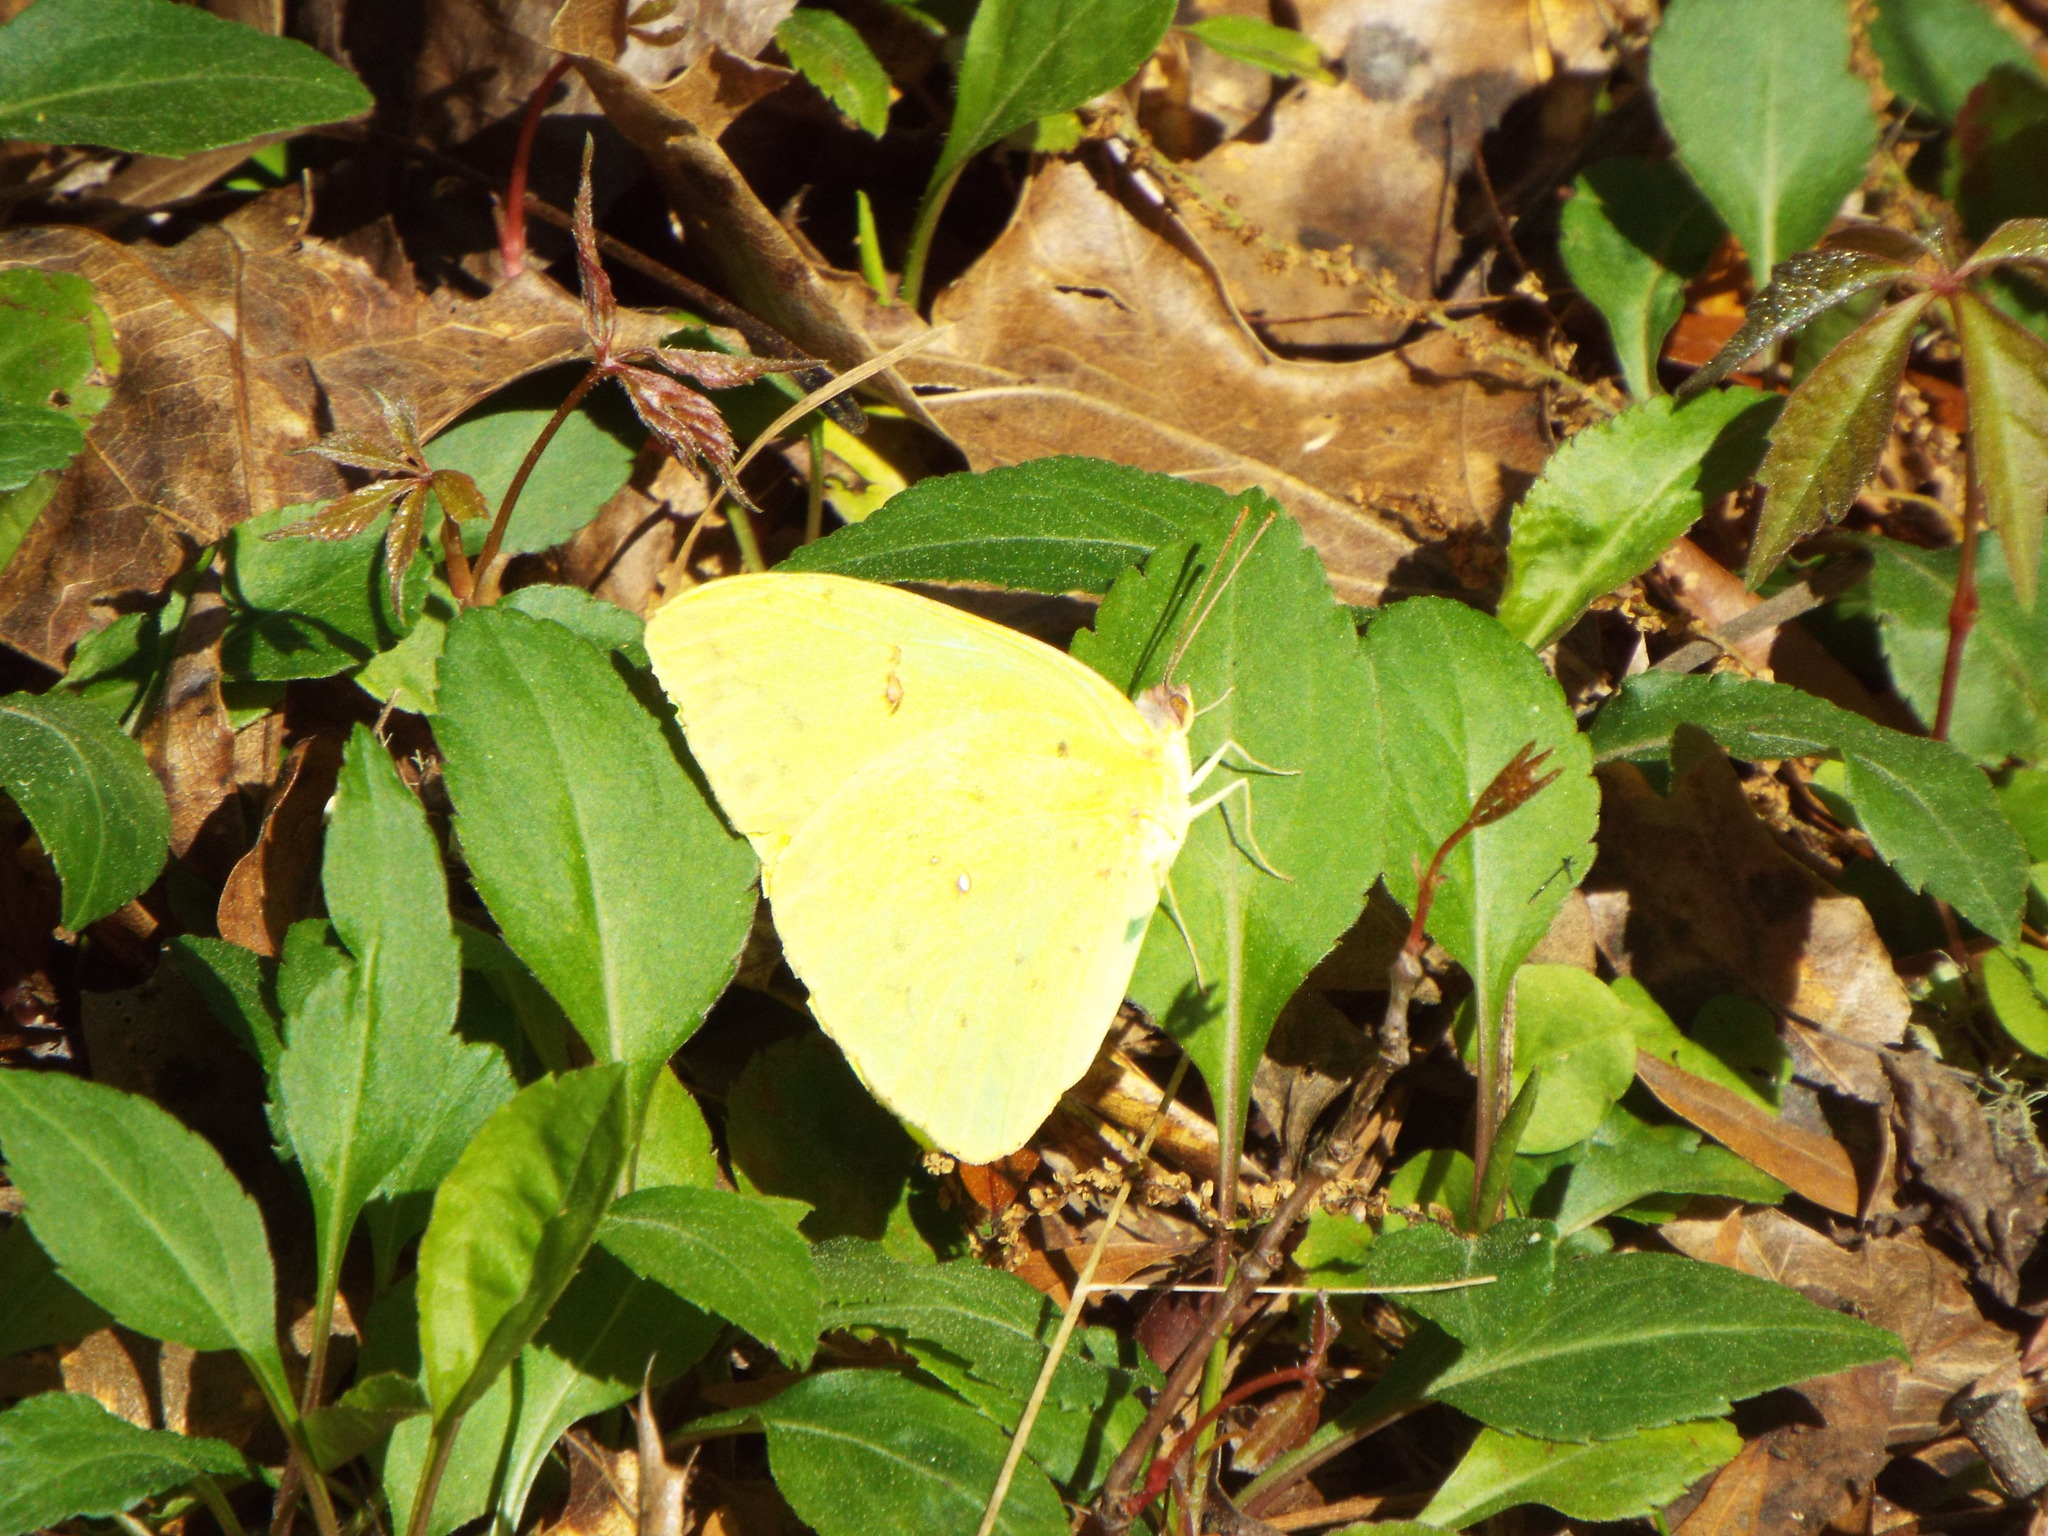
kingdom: Animalia
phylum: Arthropoda
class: Insecta
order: Lepidoptera
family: Pieridae
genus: Phoebis
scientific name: Phoebis sennae
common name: Cloudless sulphur
